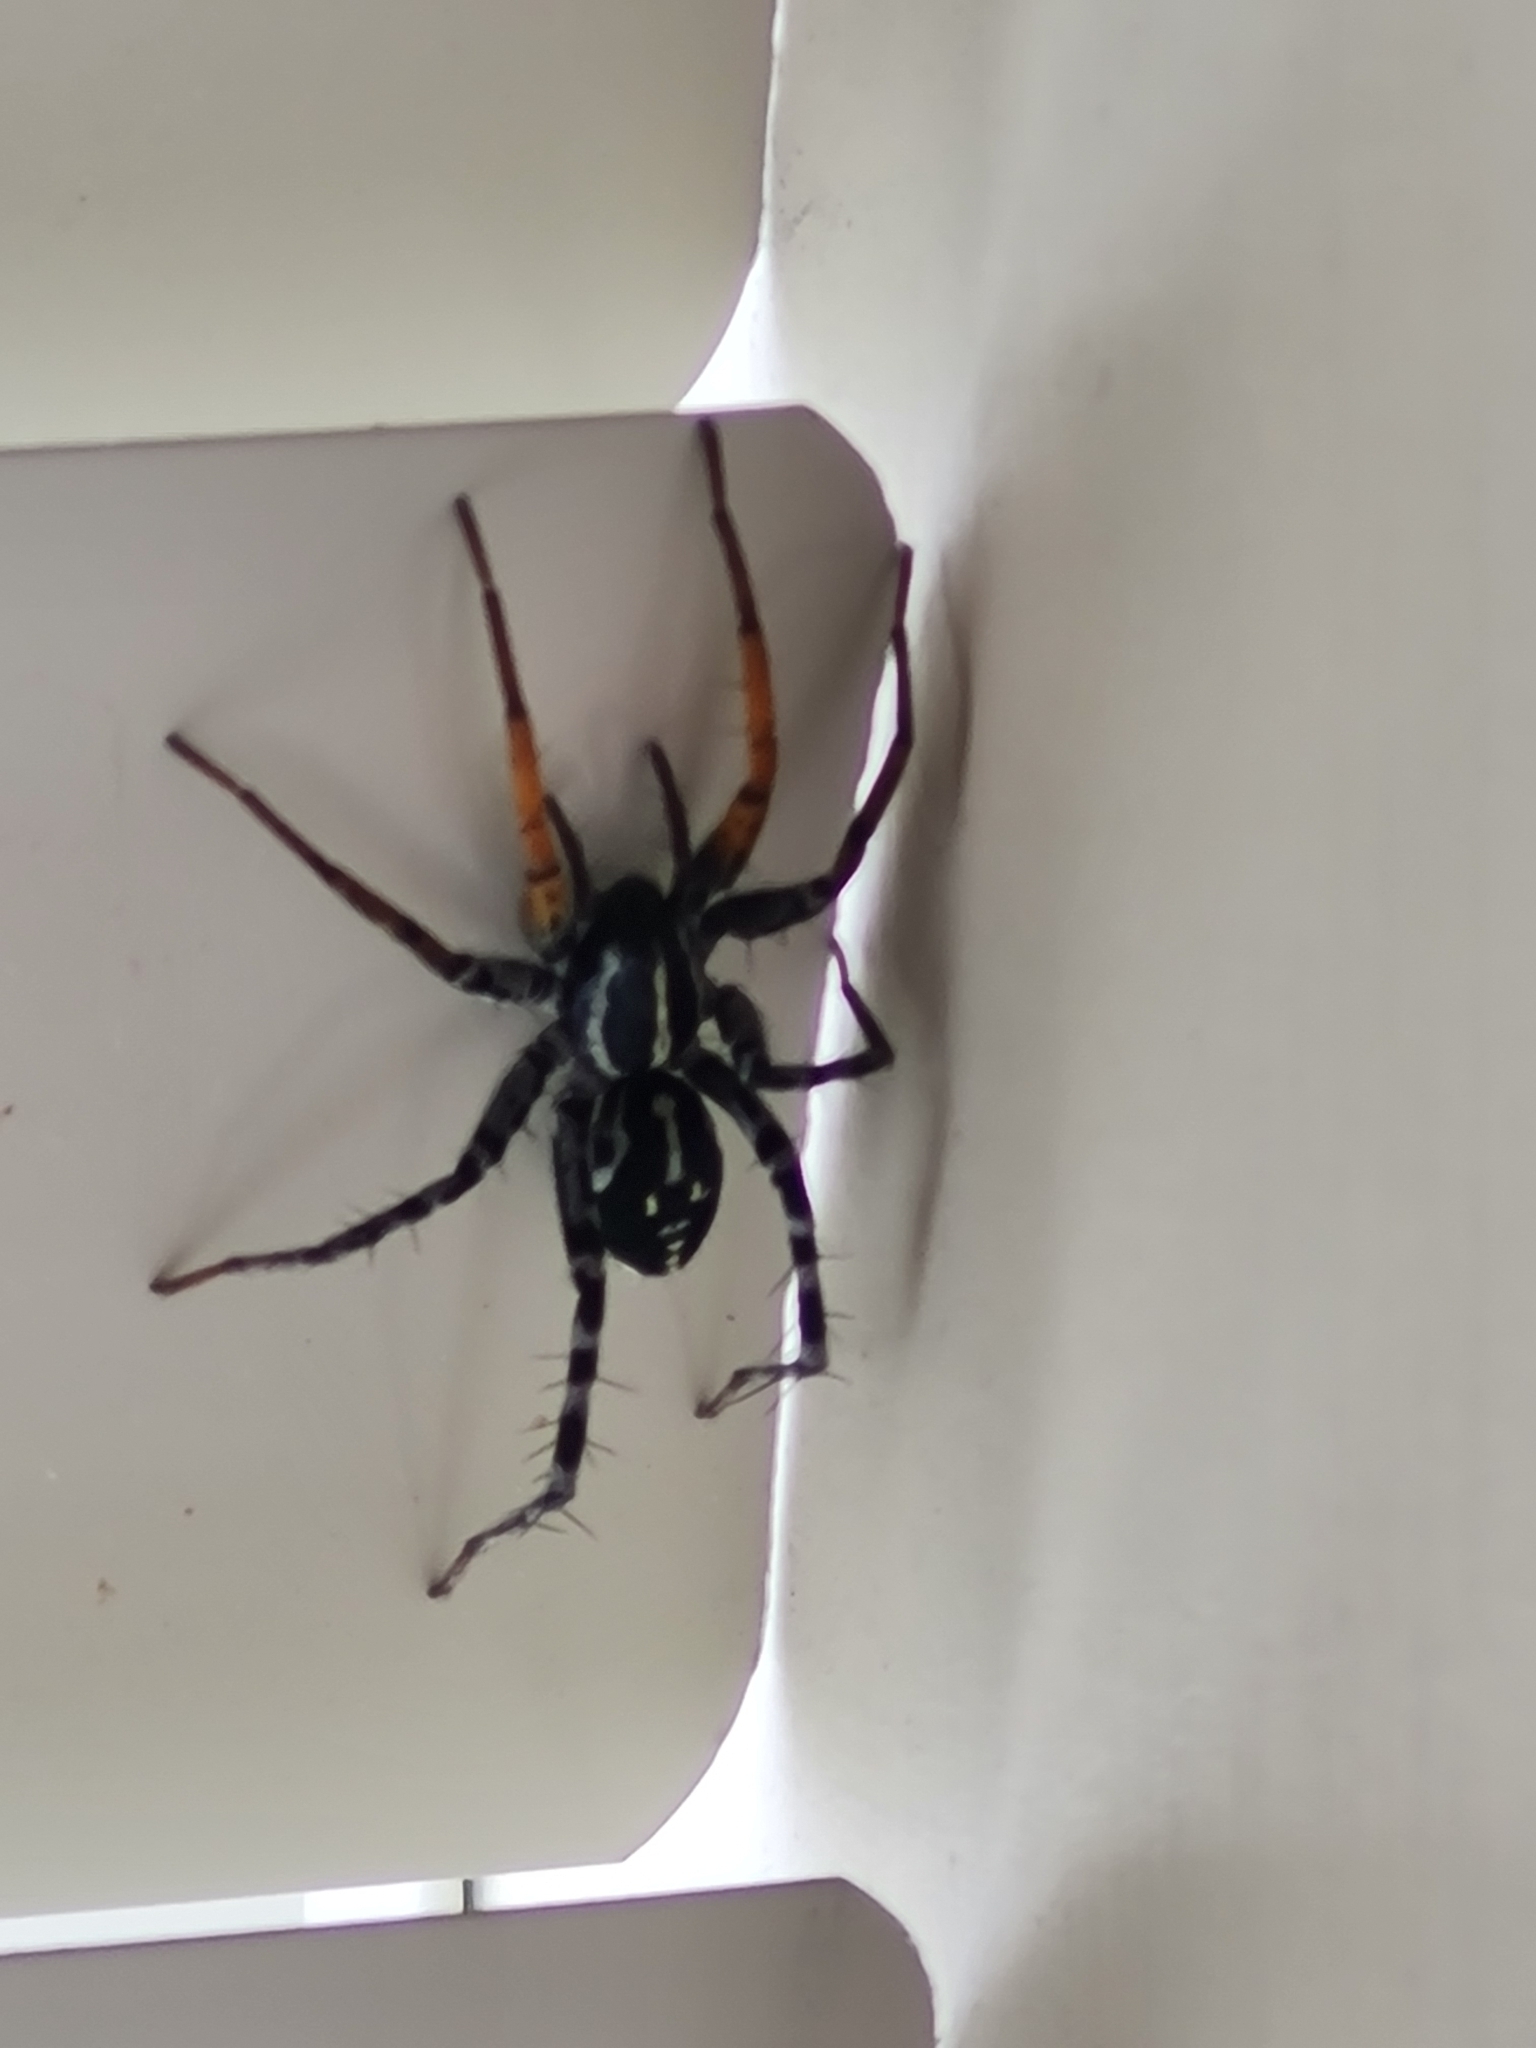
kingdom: Animalia
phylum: Arthropoda
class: Arachnida
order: Araneae
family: Corinnidae
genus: Nyssus
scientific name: Nyssus coloripes
